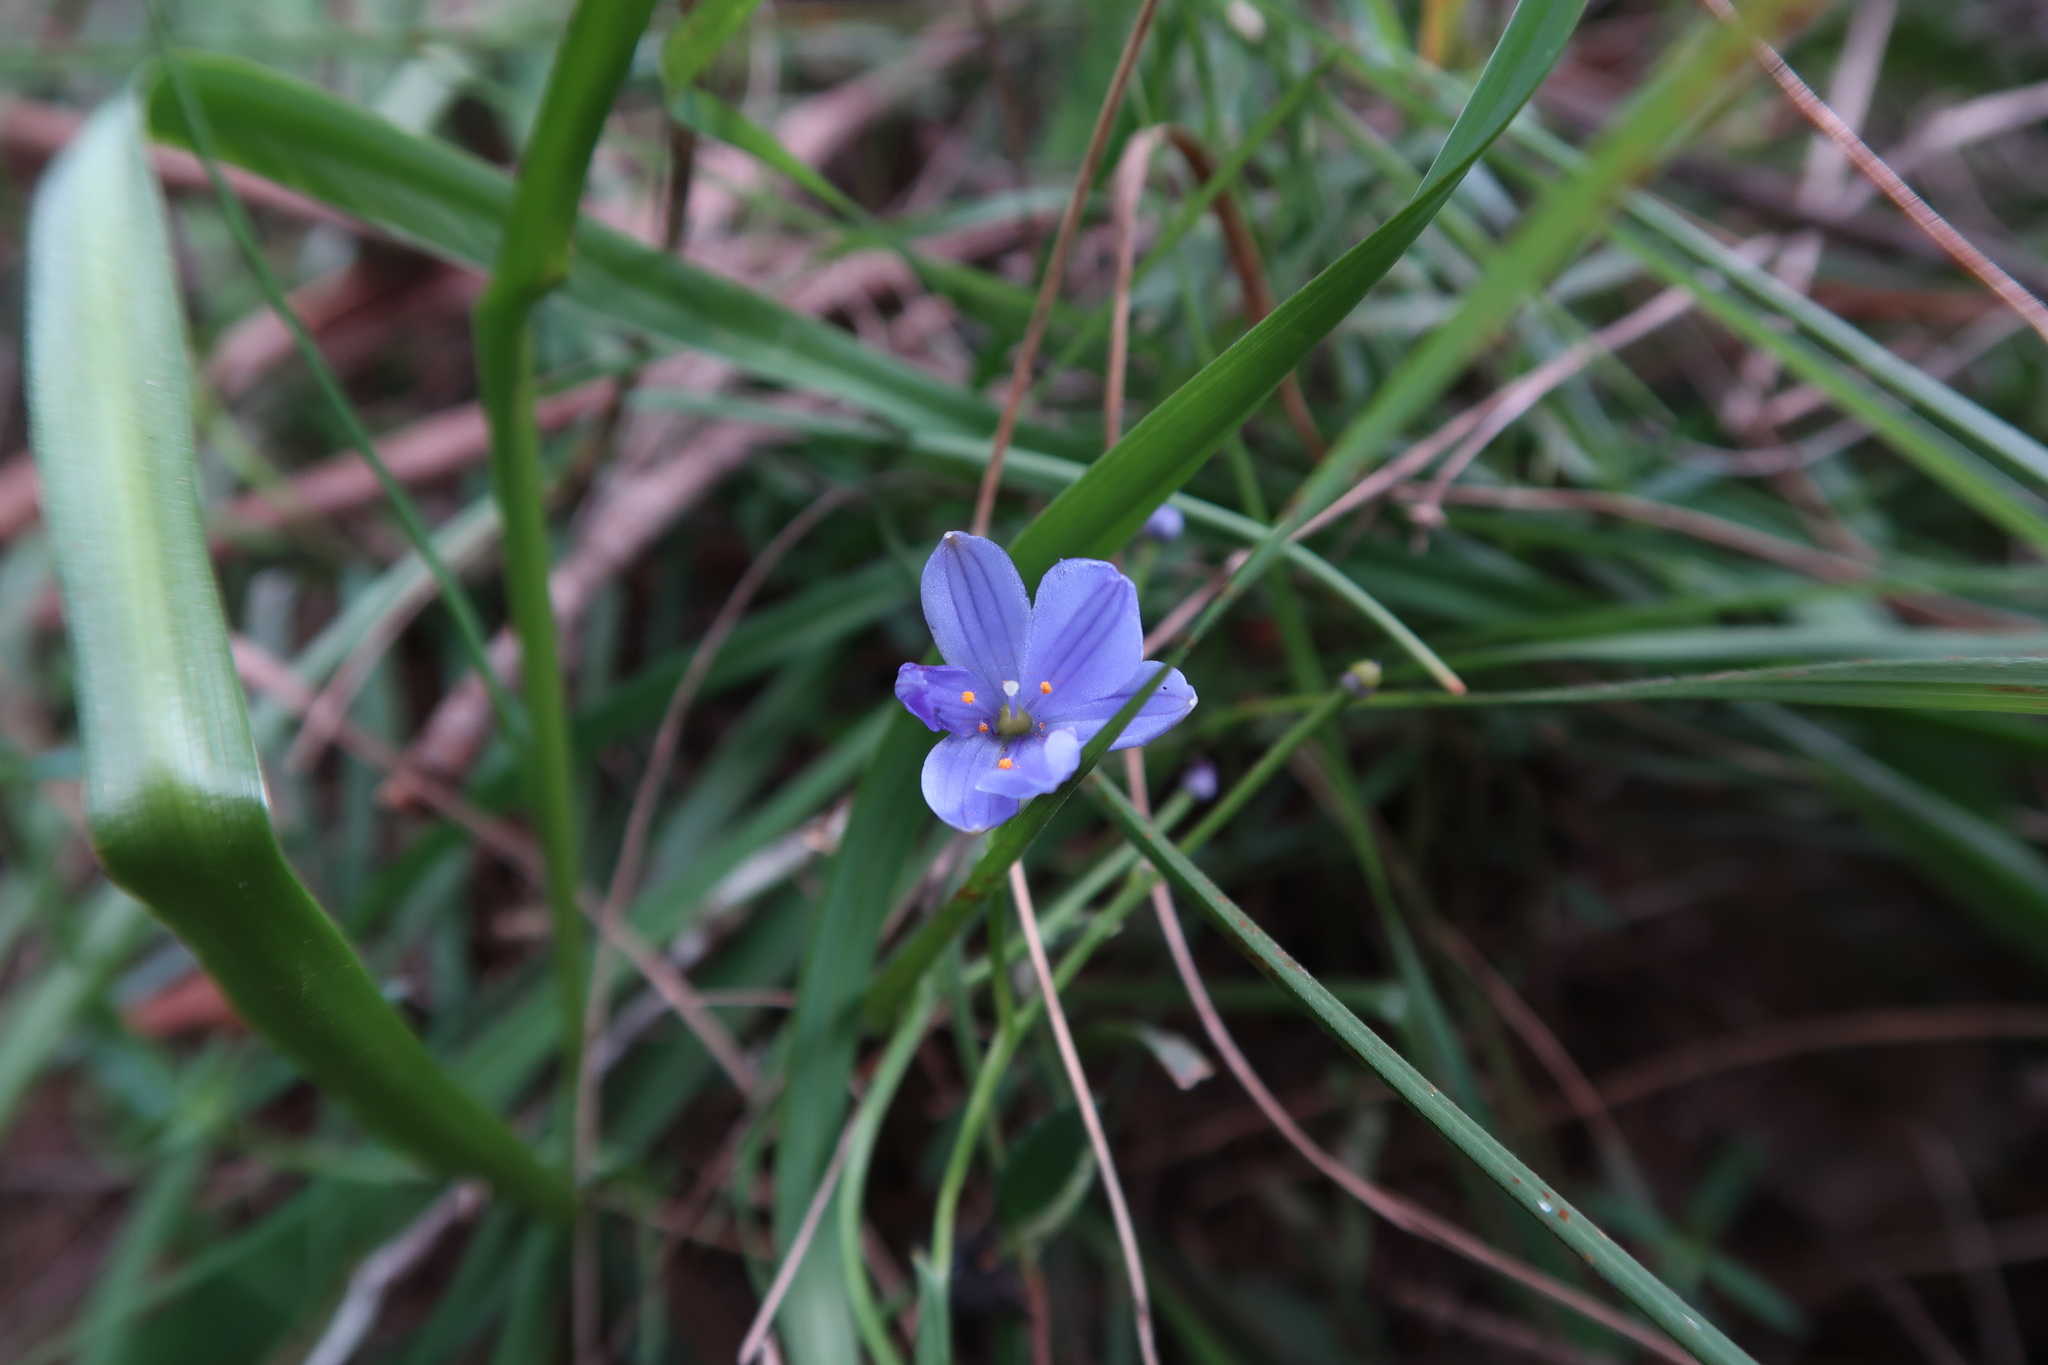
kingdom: Plantae
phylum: Tracheophyta
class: Liliopsida
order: Asparagales
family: Asphodelaceae
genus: Chamaescilla
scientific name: Chamaescilla corymbosa
